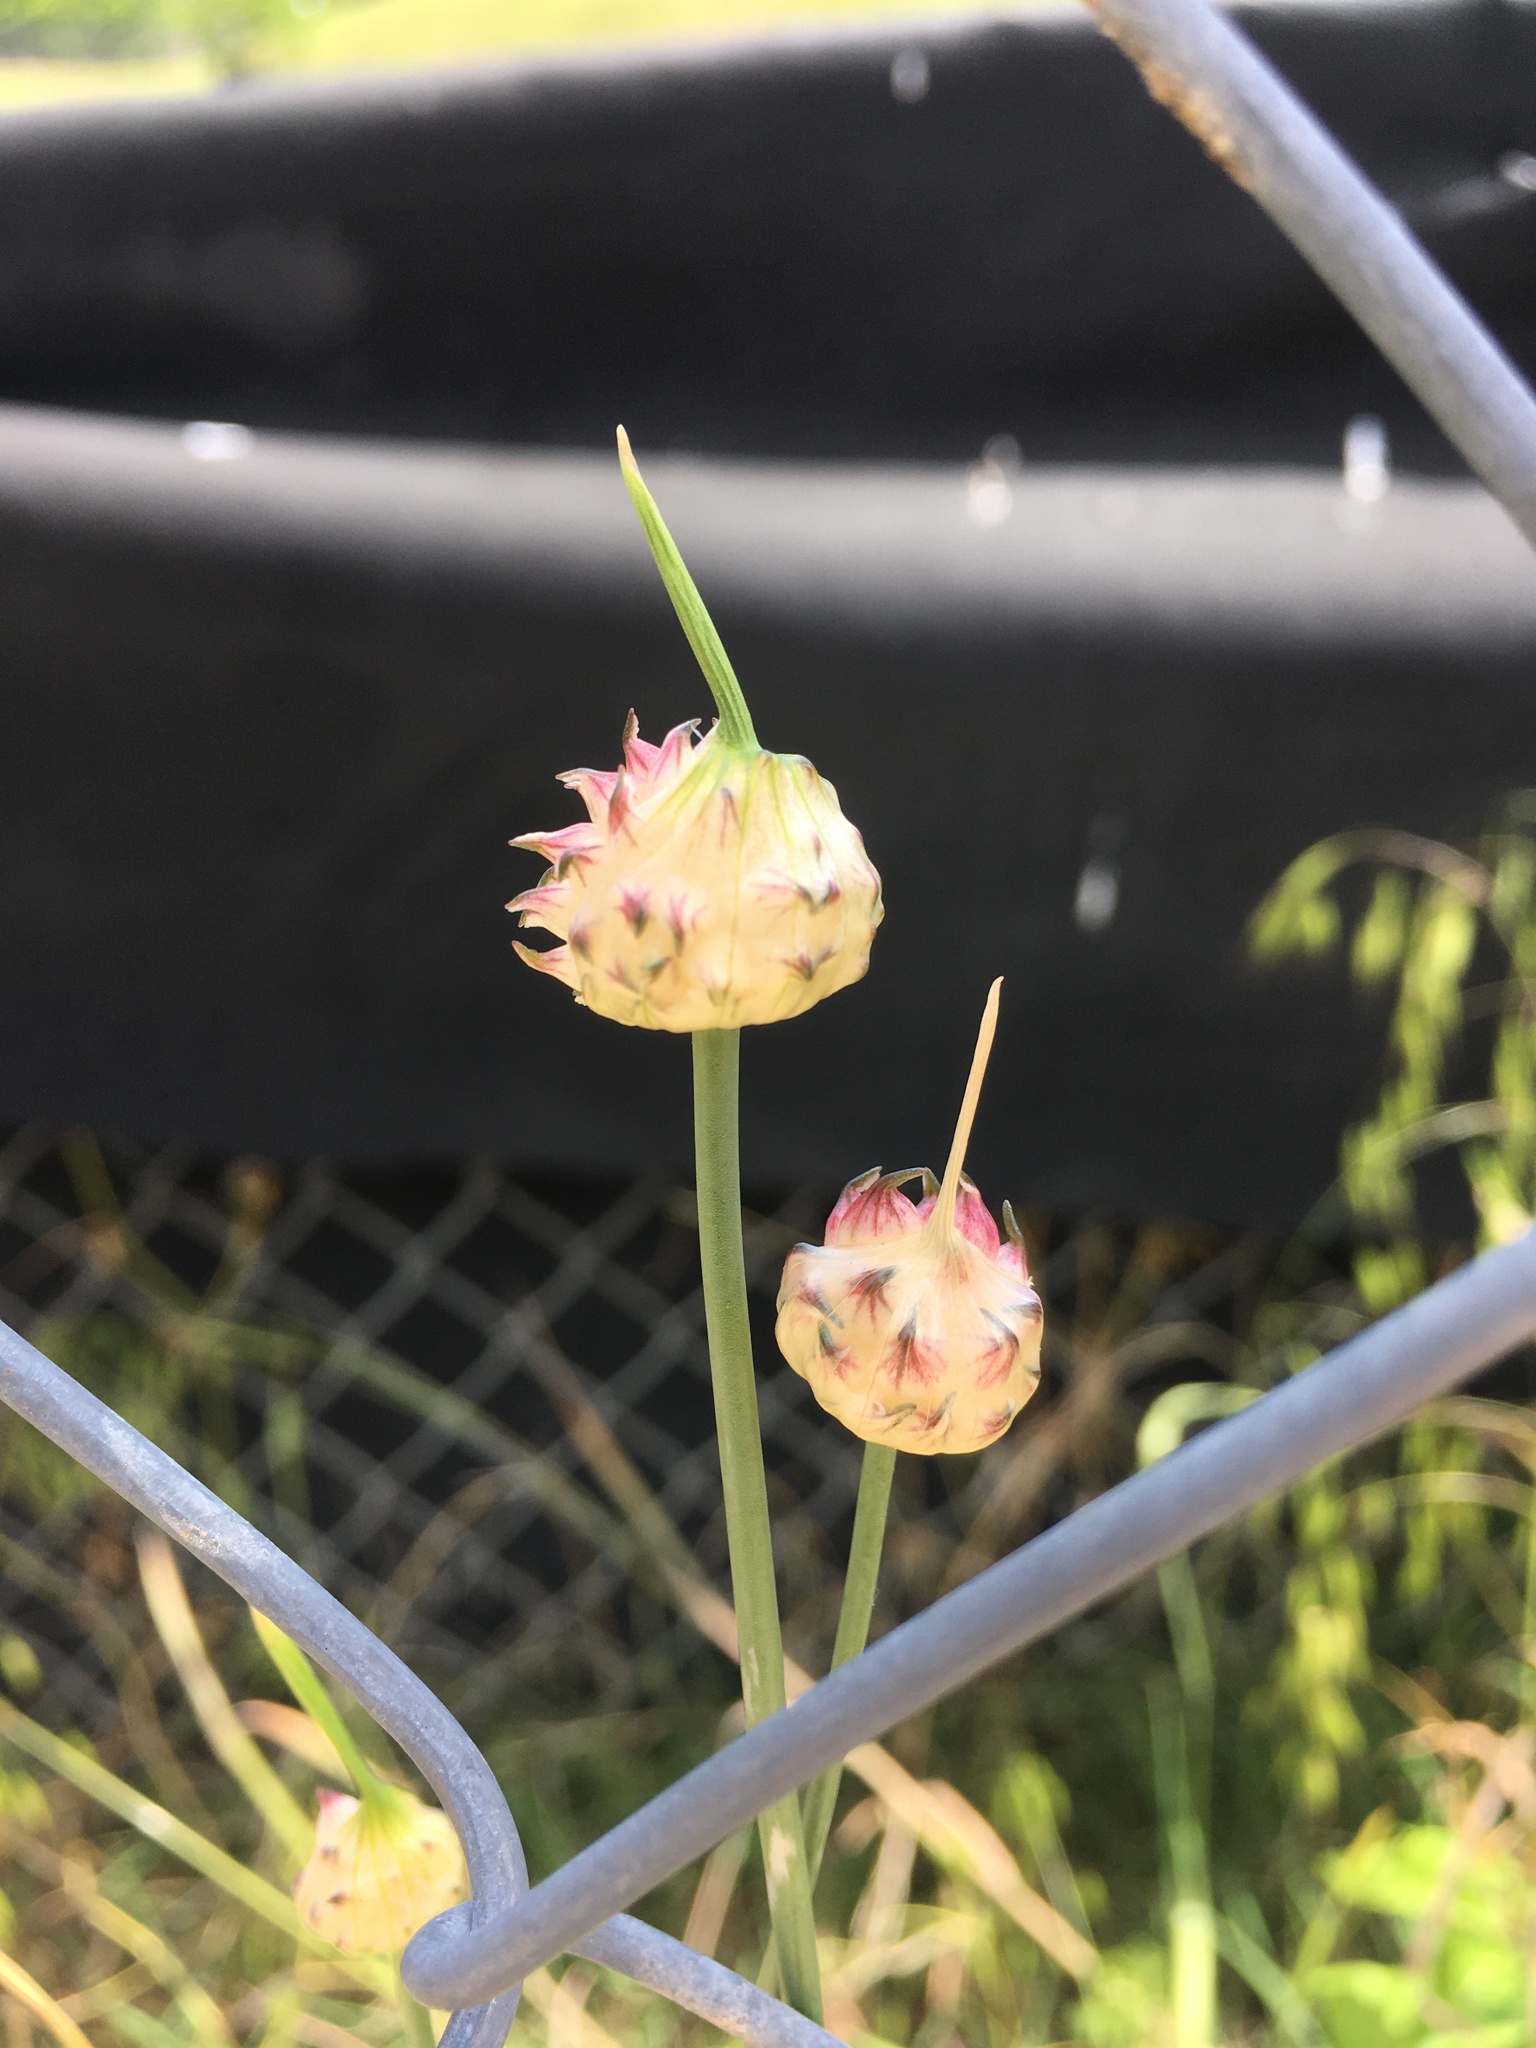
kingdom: Plantae
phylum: Tracheophyta
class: Liliopsida
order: Asparagales
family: Amaryllidaceae
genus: Allium
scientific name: Allium vineale
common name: Crow garlic
